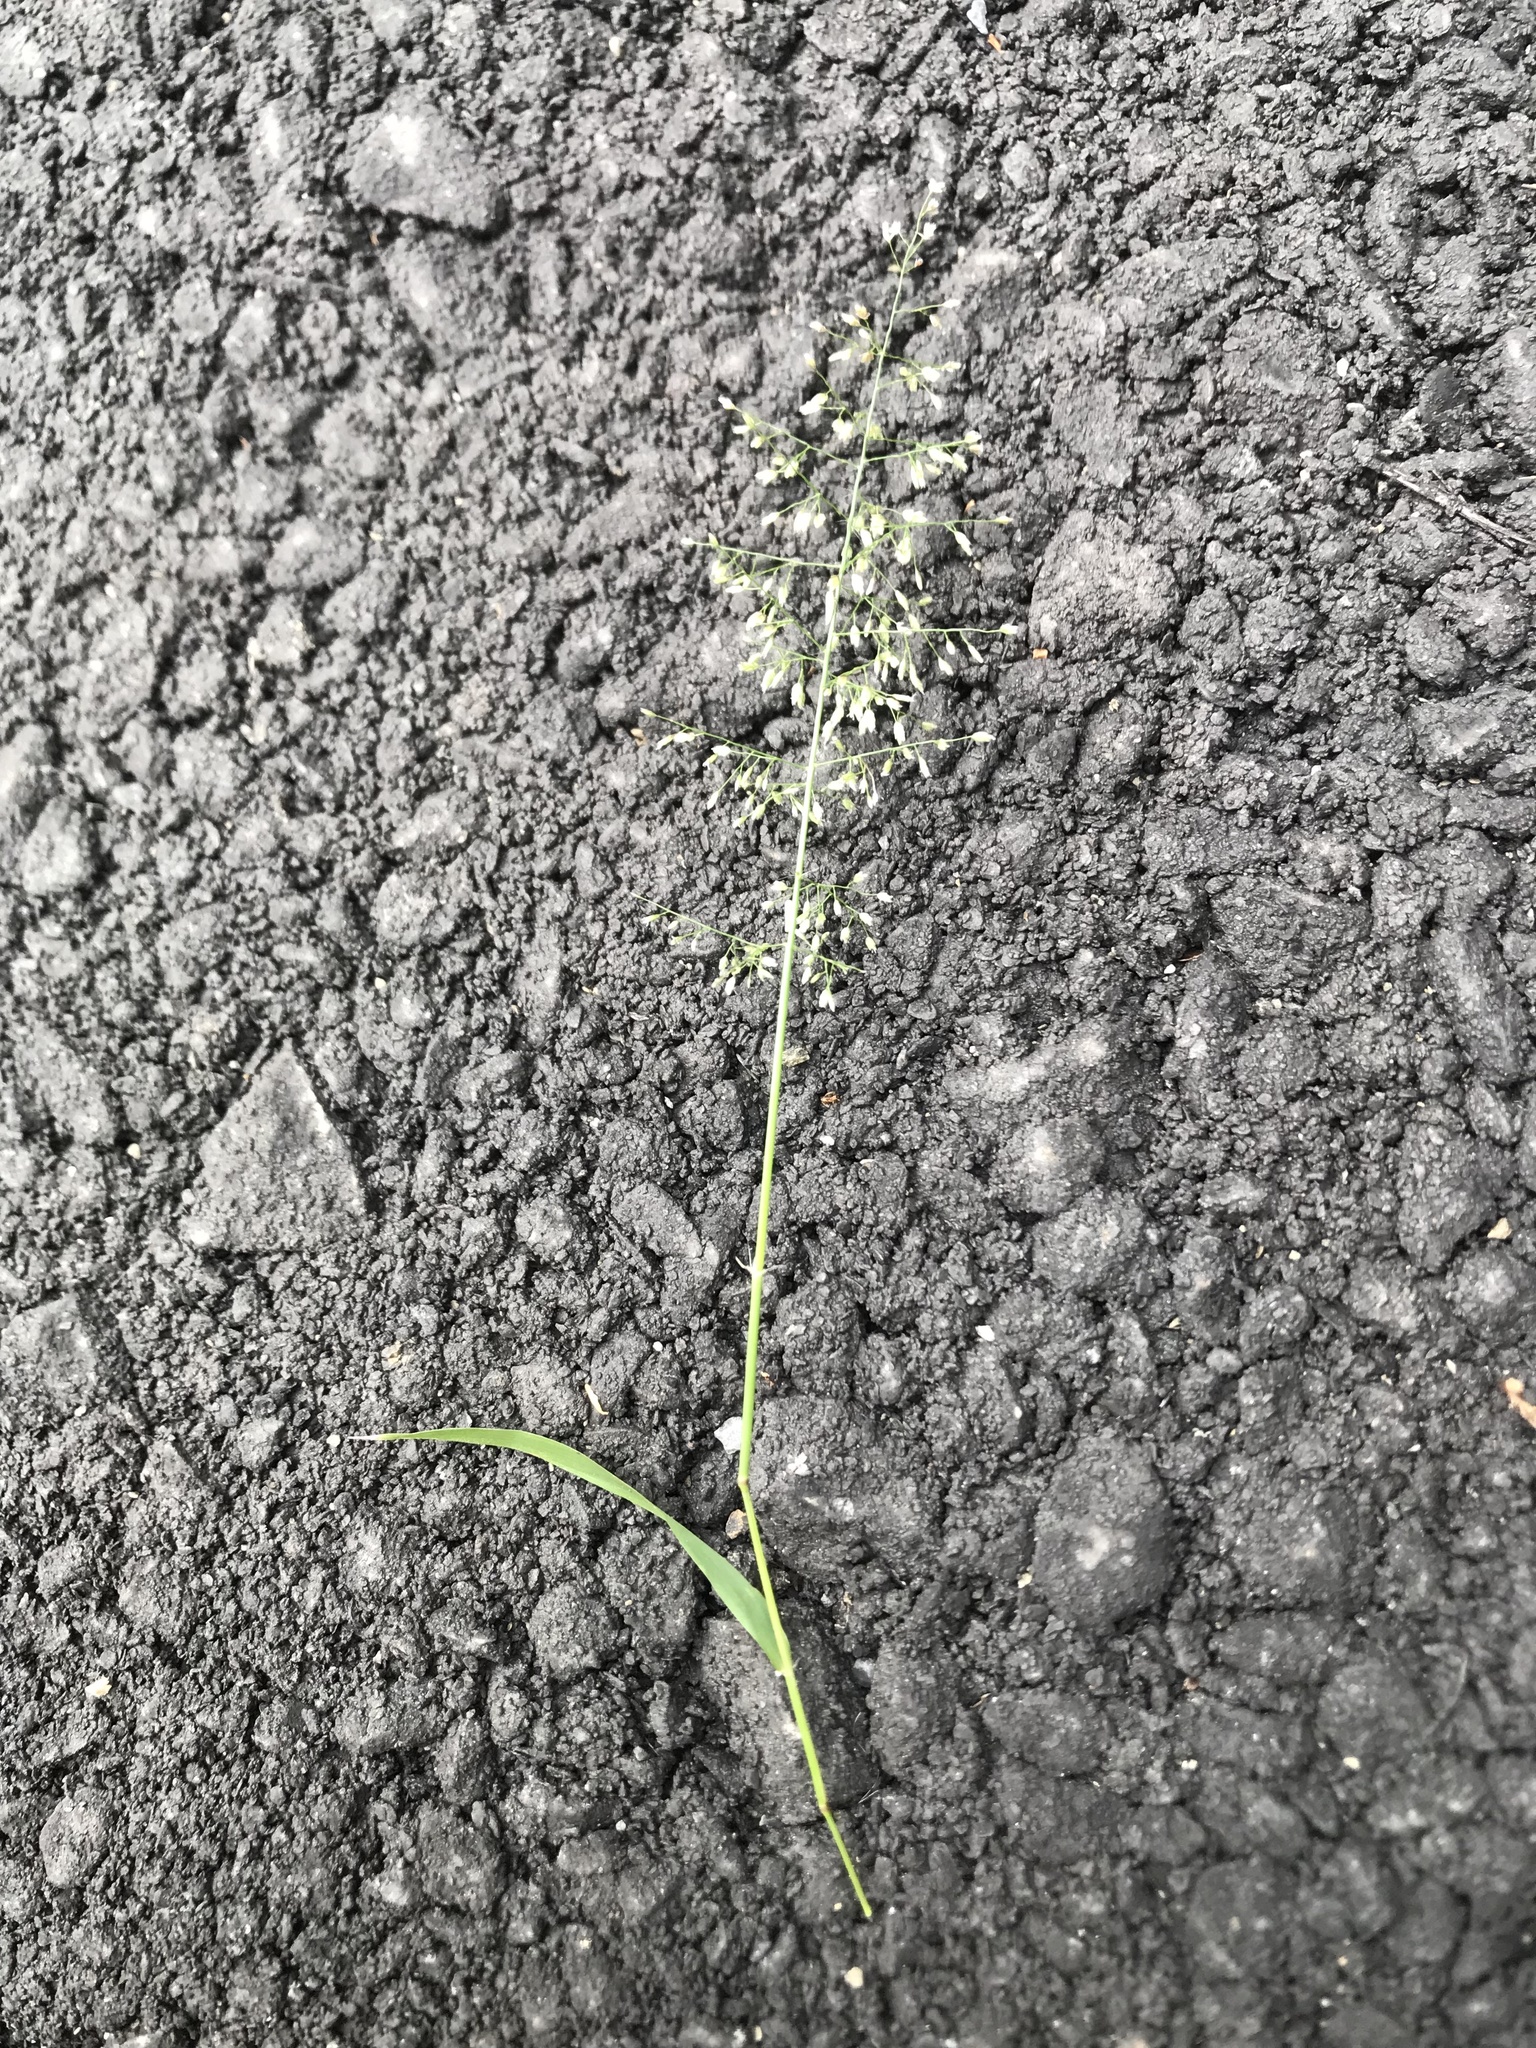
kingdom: Plantae
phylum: Tracheophyta
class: Liliopsida
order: Poales
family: Poaceae
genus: Eragrostis
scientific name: Eragrostis tenella
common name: Japanese lovegrass
